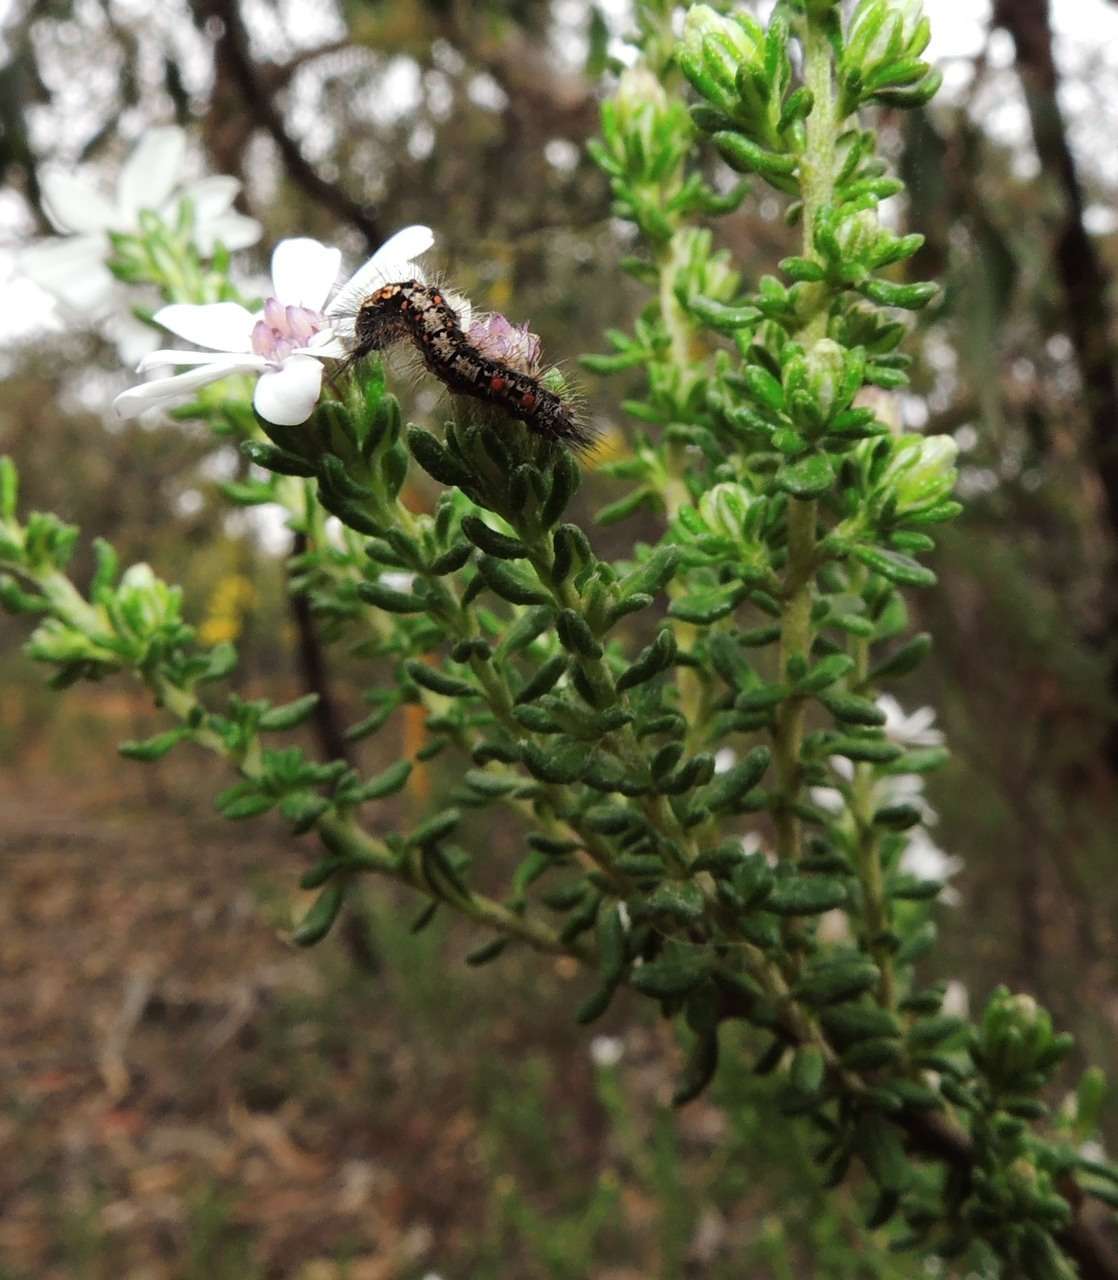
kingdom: Plantae
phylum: Tracheophyta
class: Magnoliopsida
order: Asterales
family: Asteraceae
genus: Olearia
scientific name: Olearia minor
